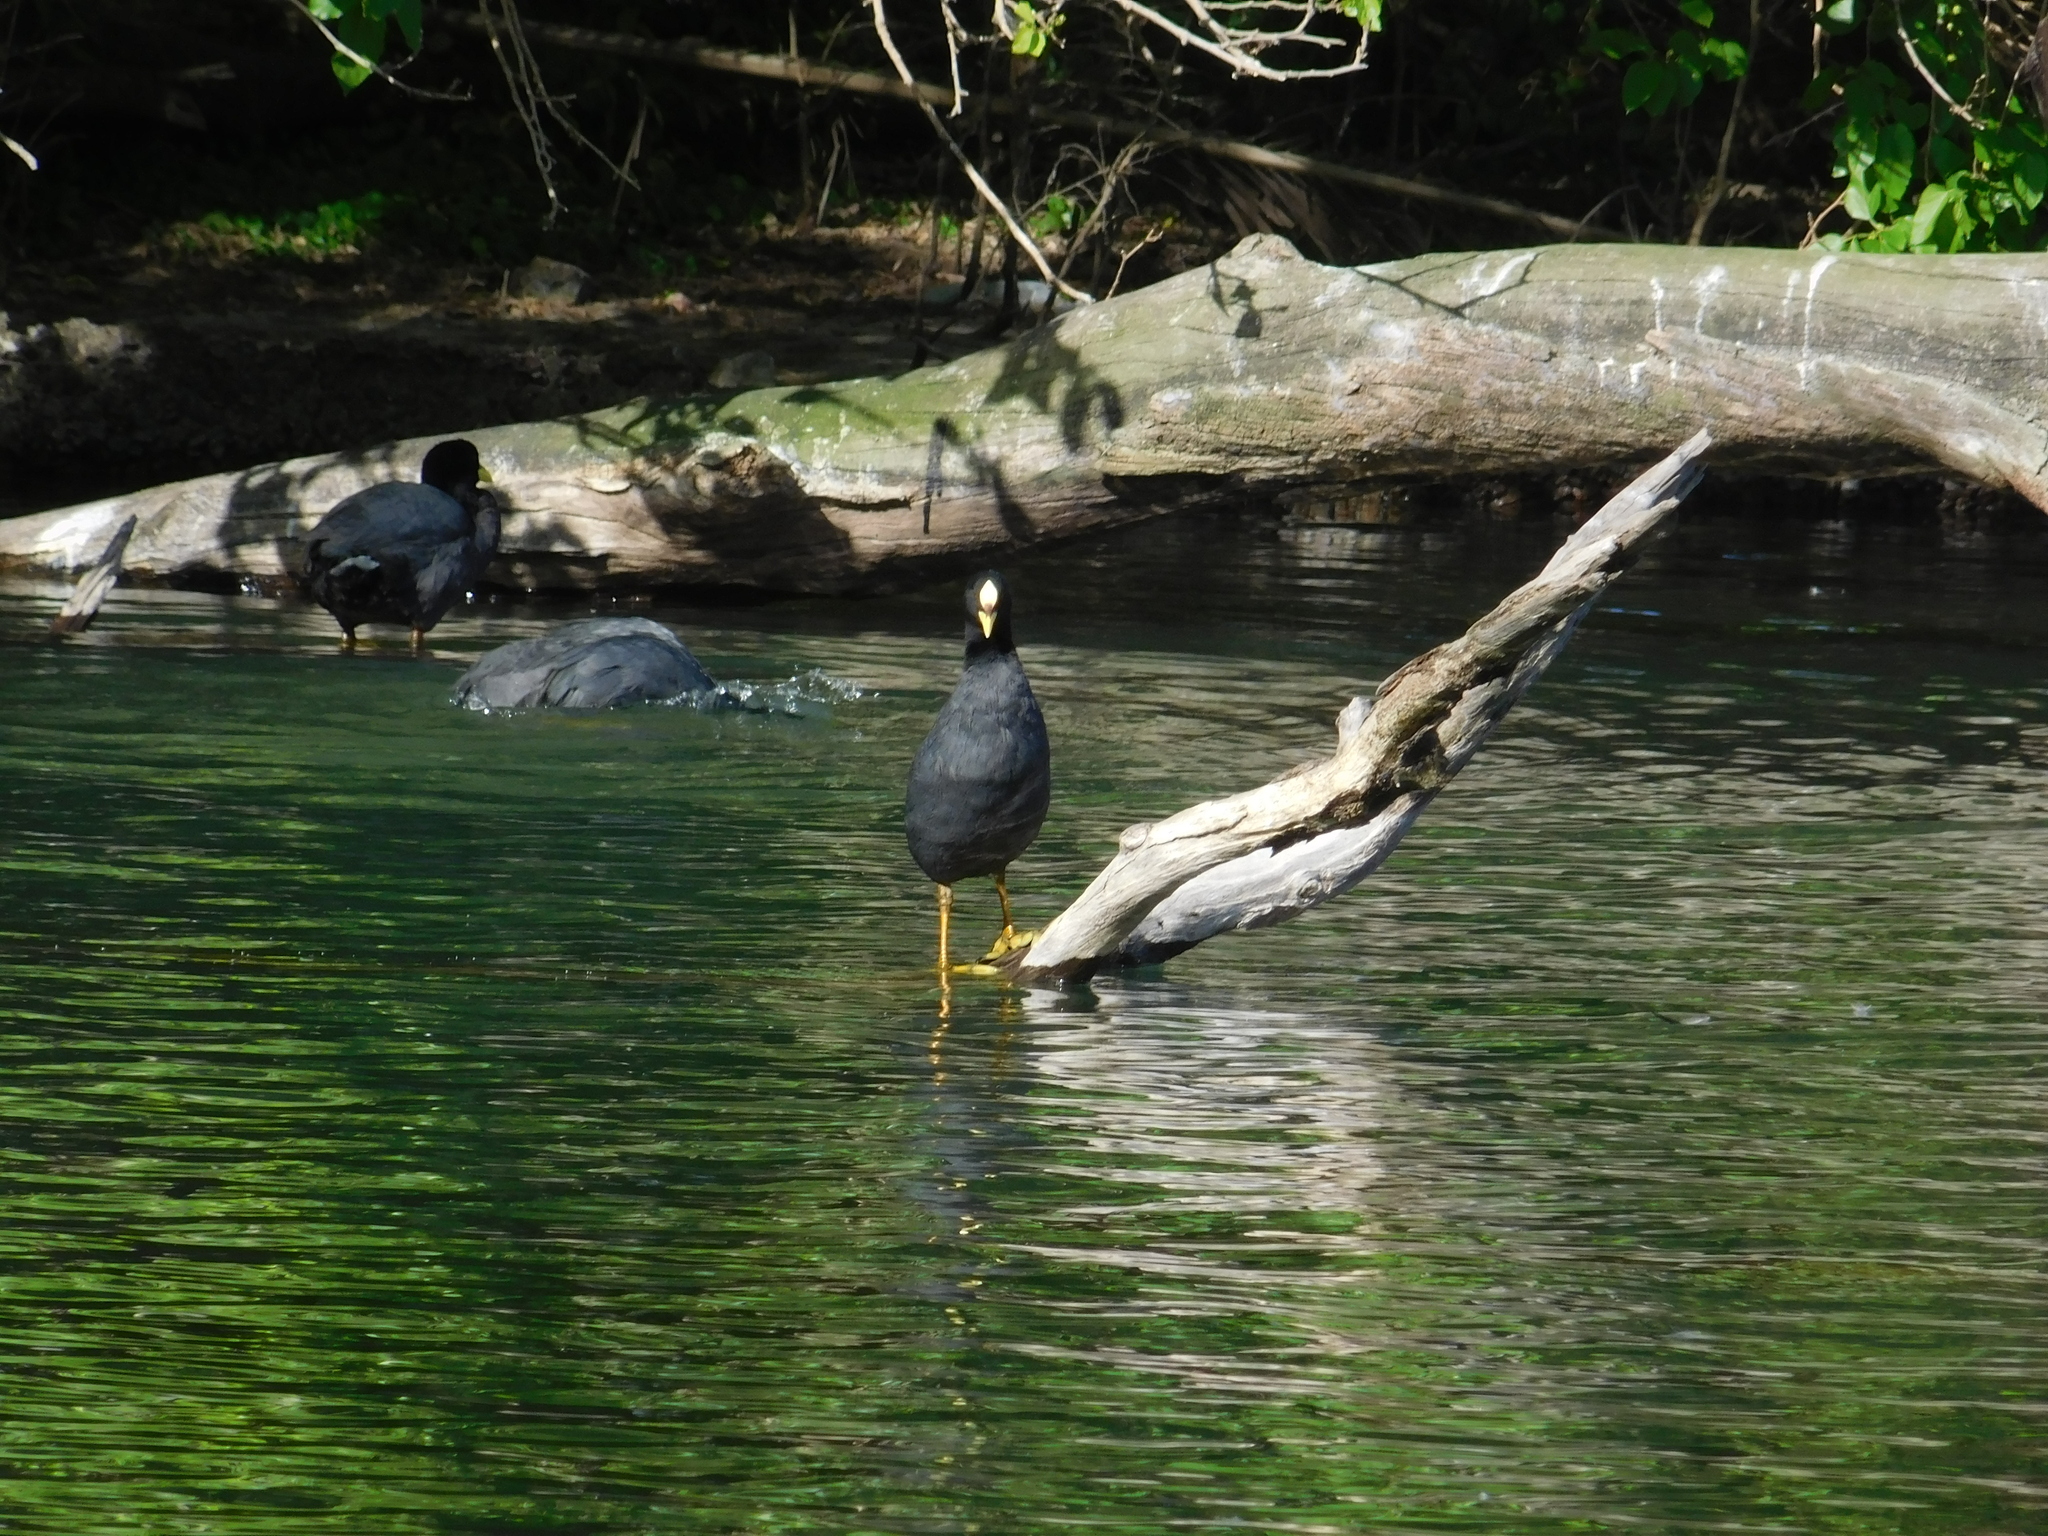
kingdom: Animalia
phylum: Chordata
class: Aves
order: Gruiformes
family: Rallidae
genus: Fulica
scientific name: Fulica armillata
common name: Red-gartered coot
